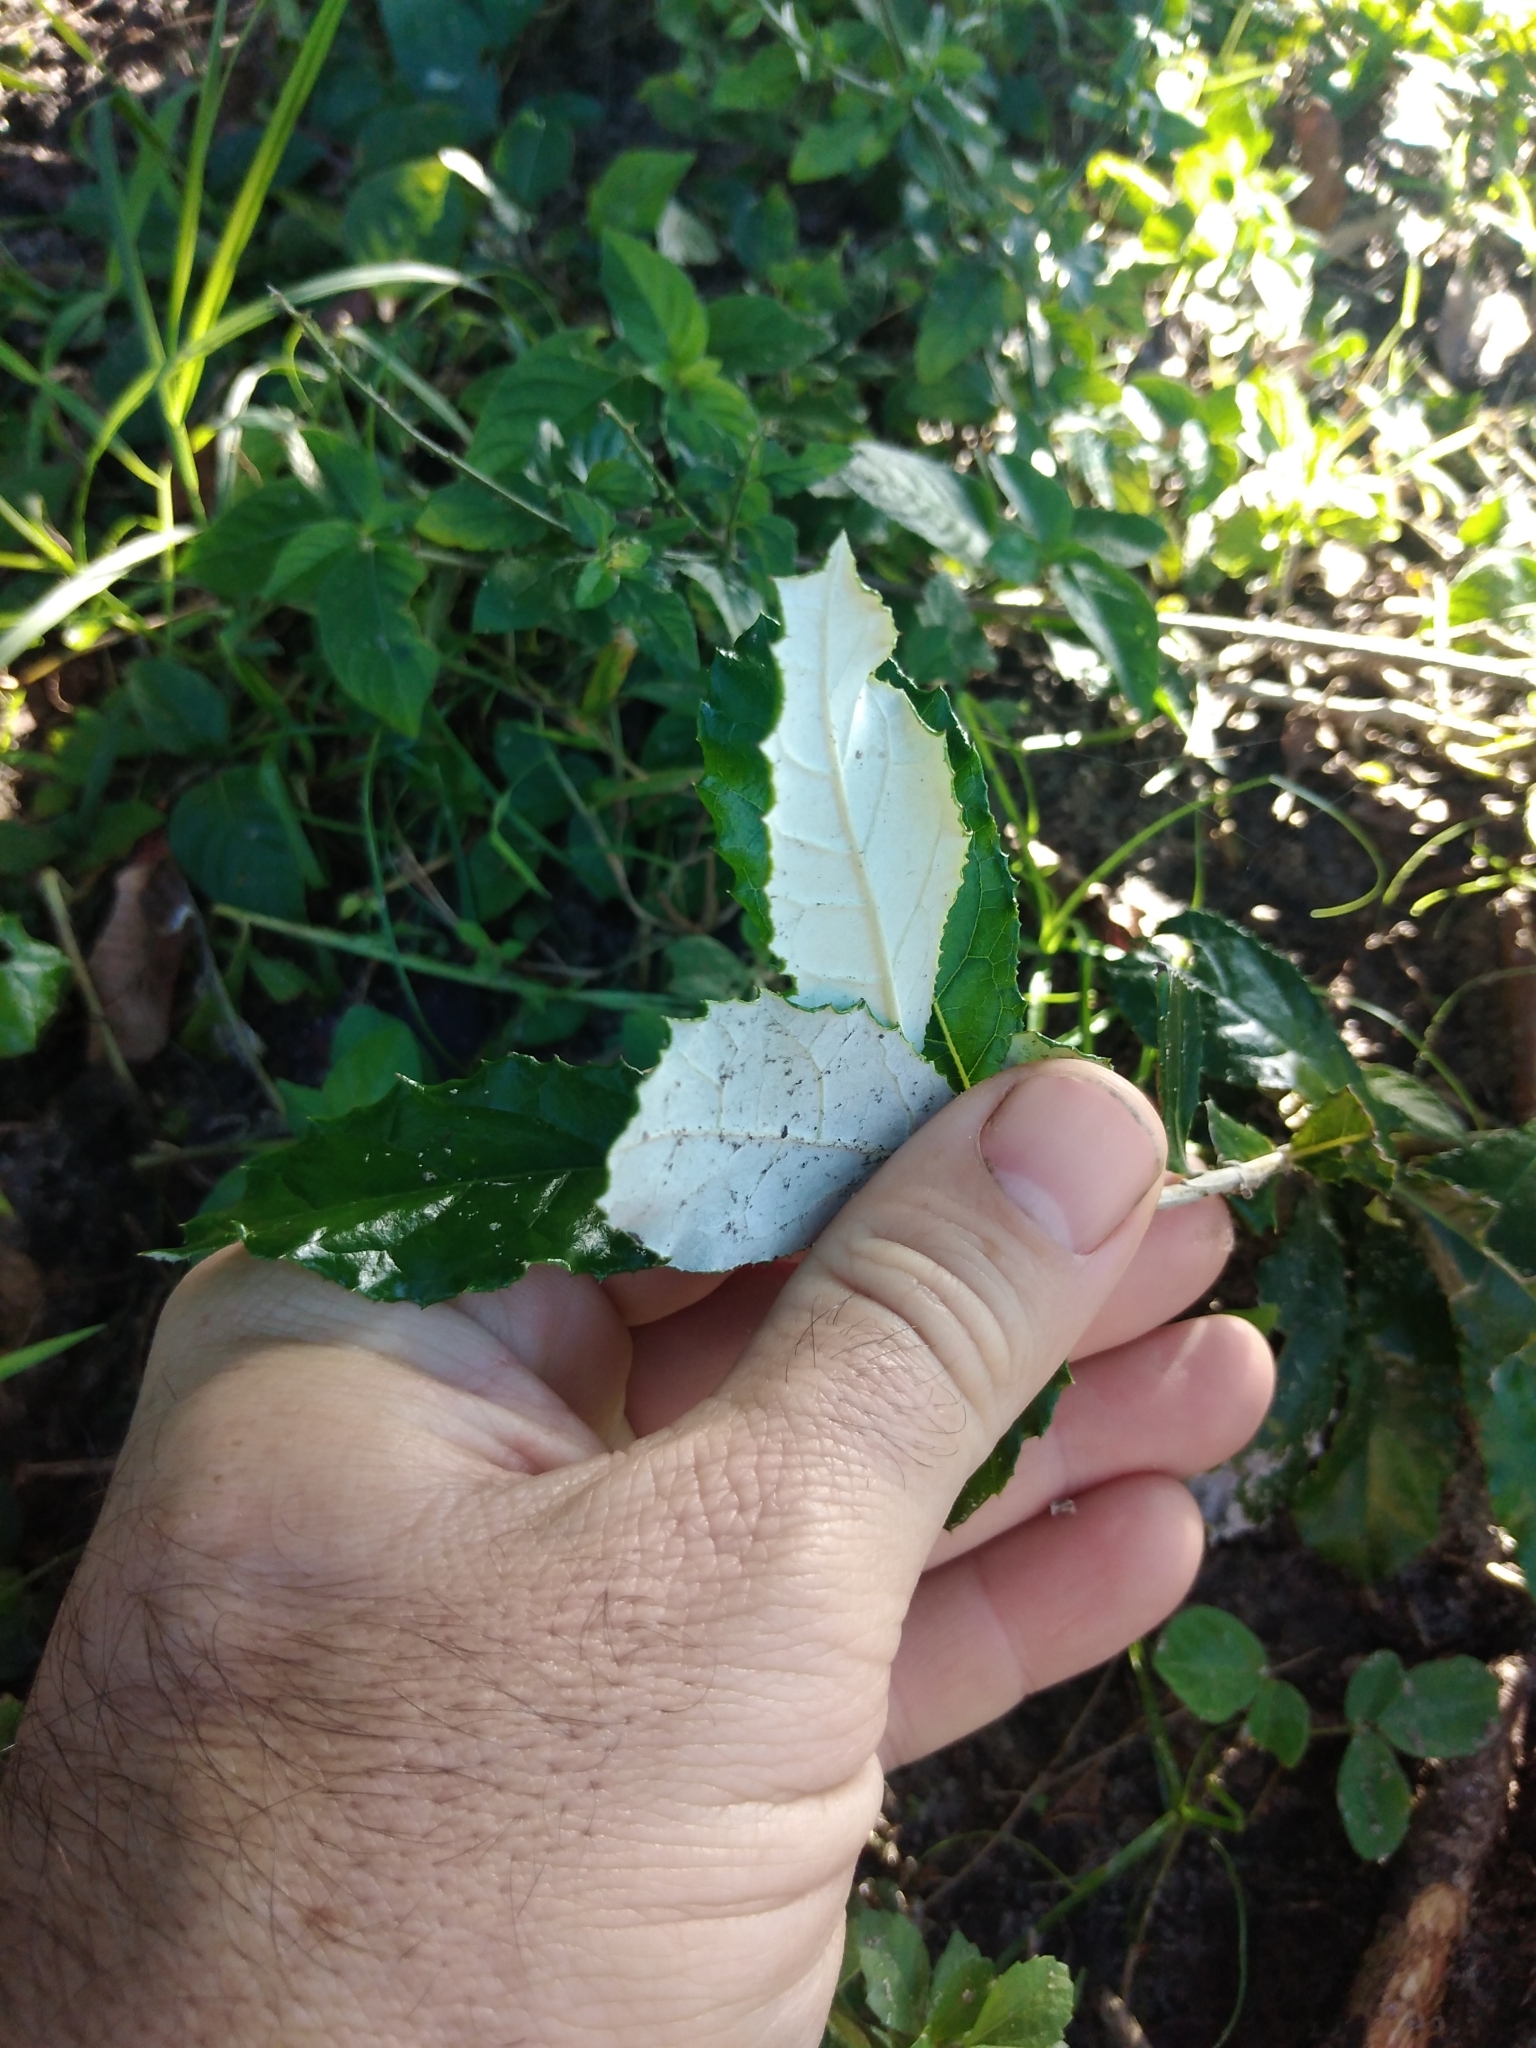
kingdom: Plantae
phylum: Tracheophyta
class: Magnoliopsida
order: Asterales
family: Asteraceae
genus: Brachylaena
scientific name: Brachylaena discolor
